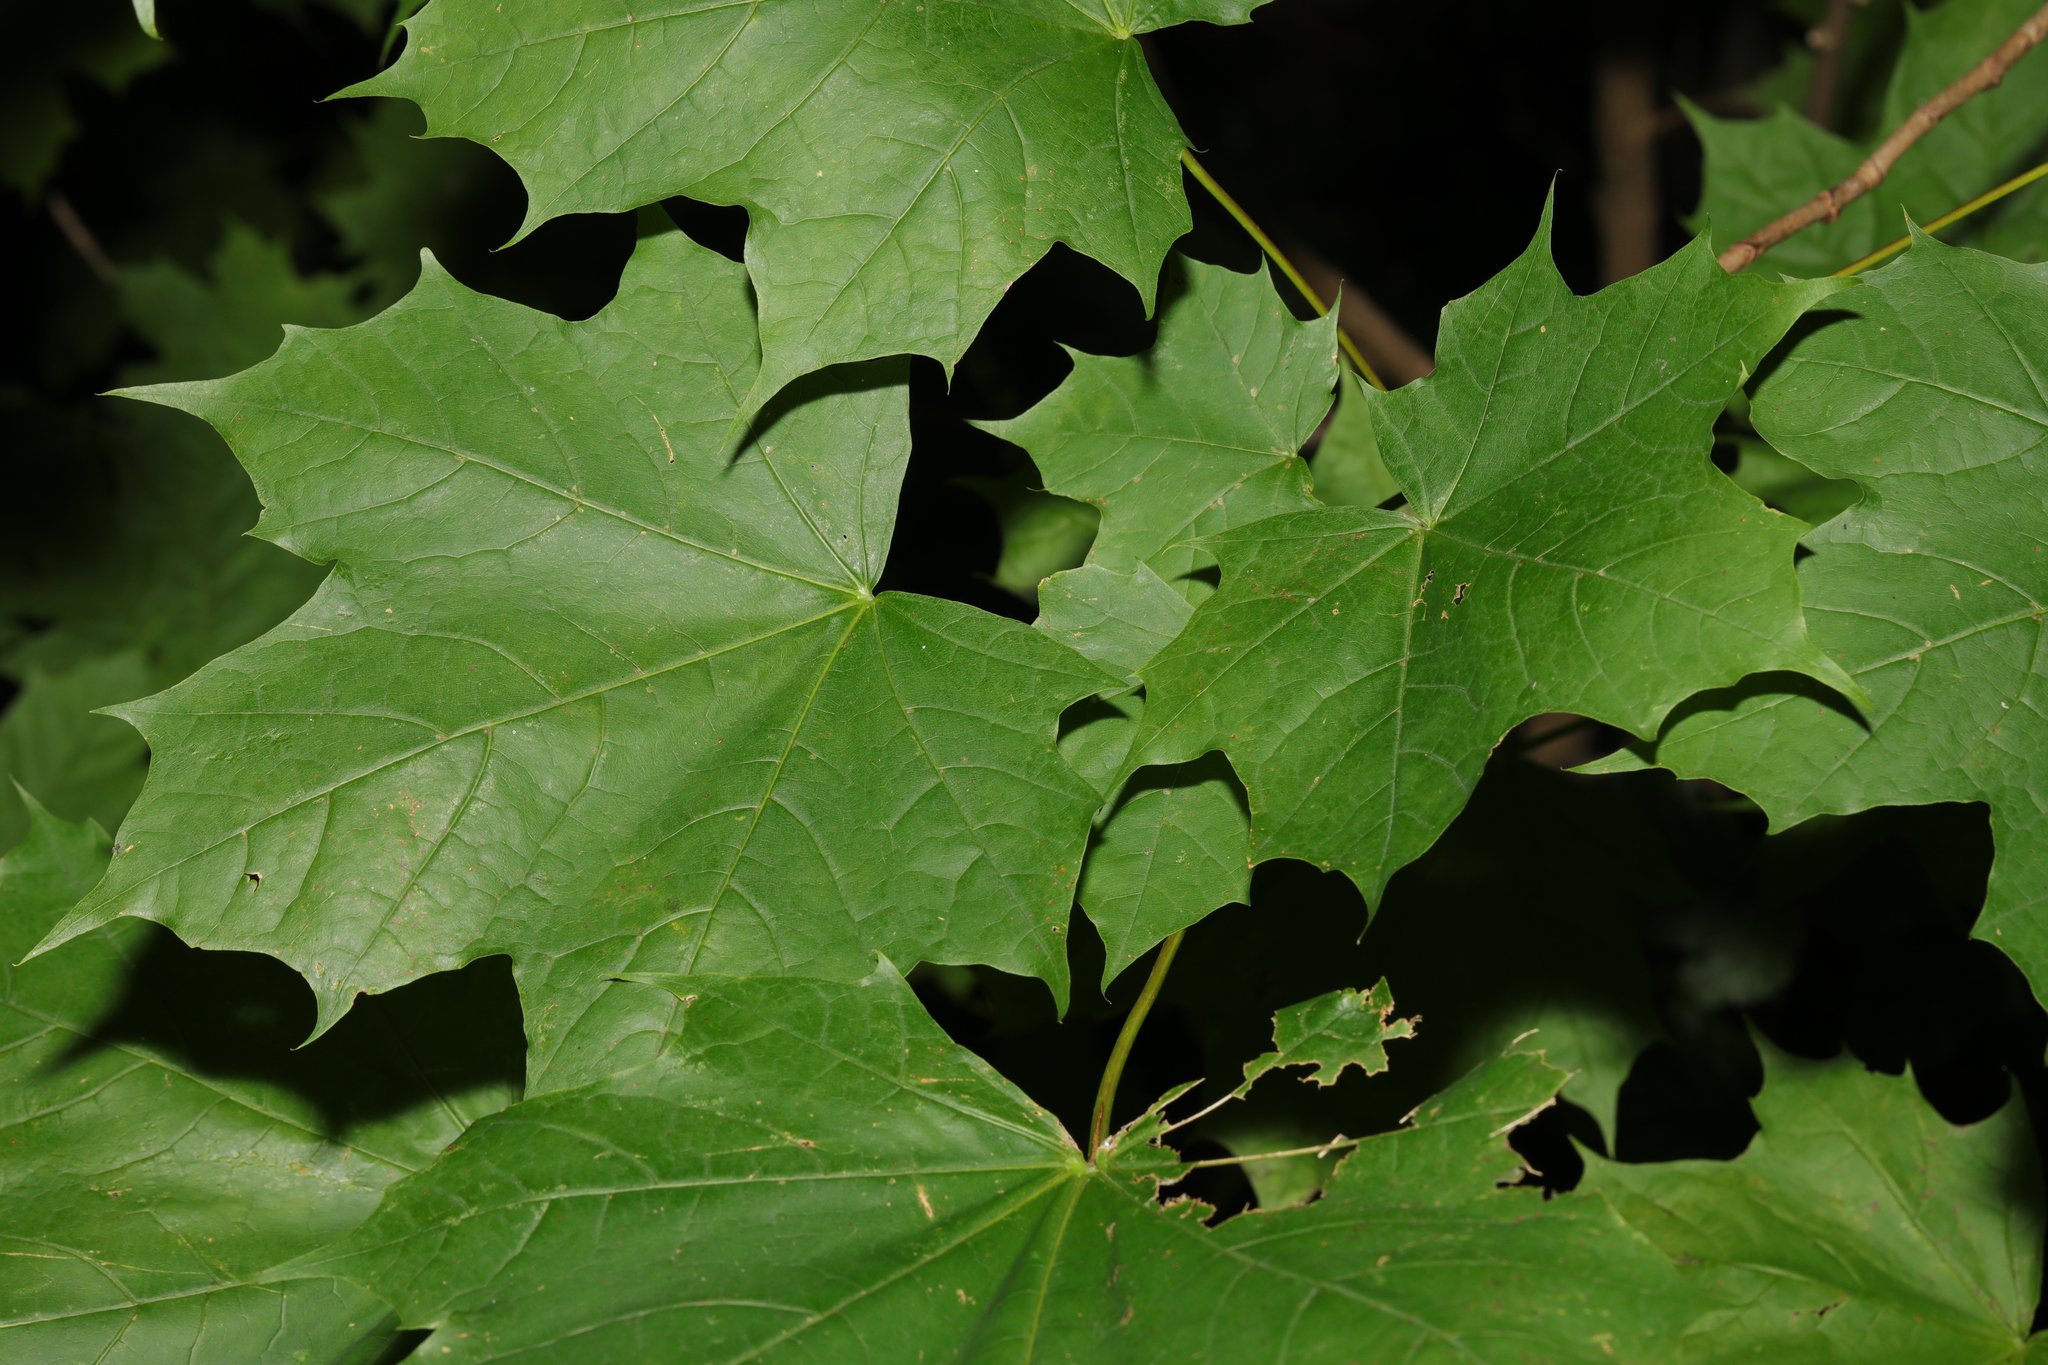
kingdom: Plantae
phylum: Tracheophyta
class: Magnoliopsida
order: Sapindales
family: Sapindaceae
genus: Acer
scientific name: Acer platanoides
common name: Norway maple
